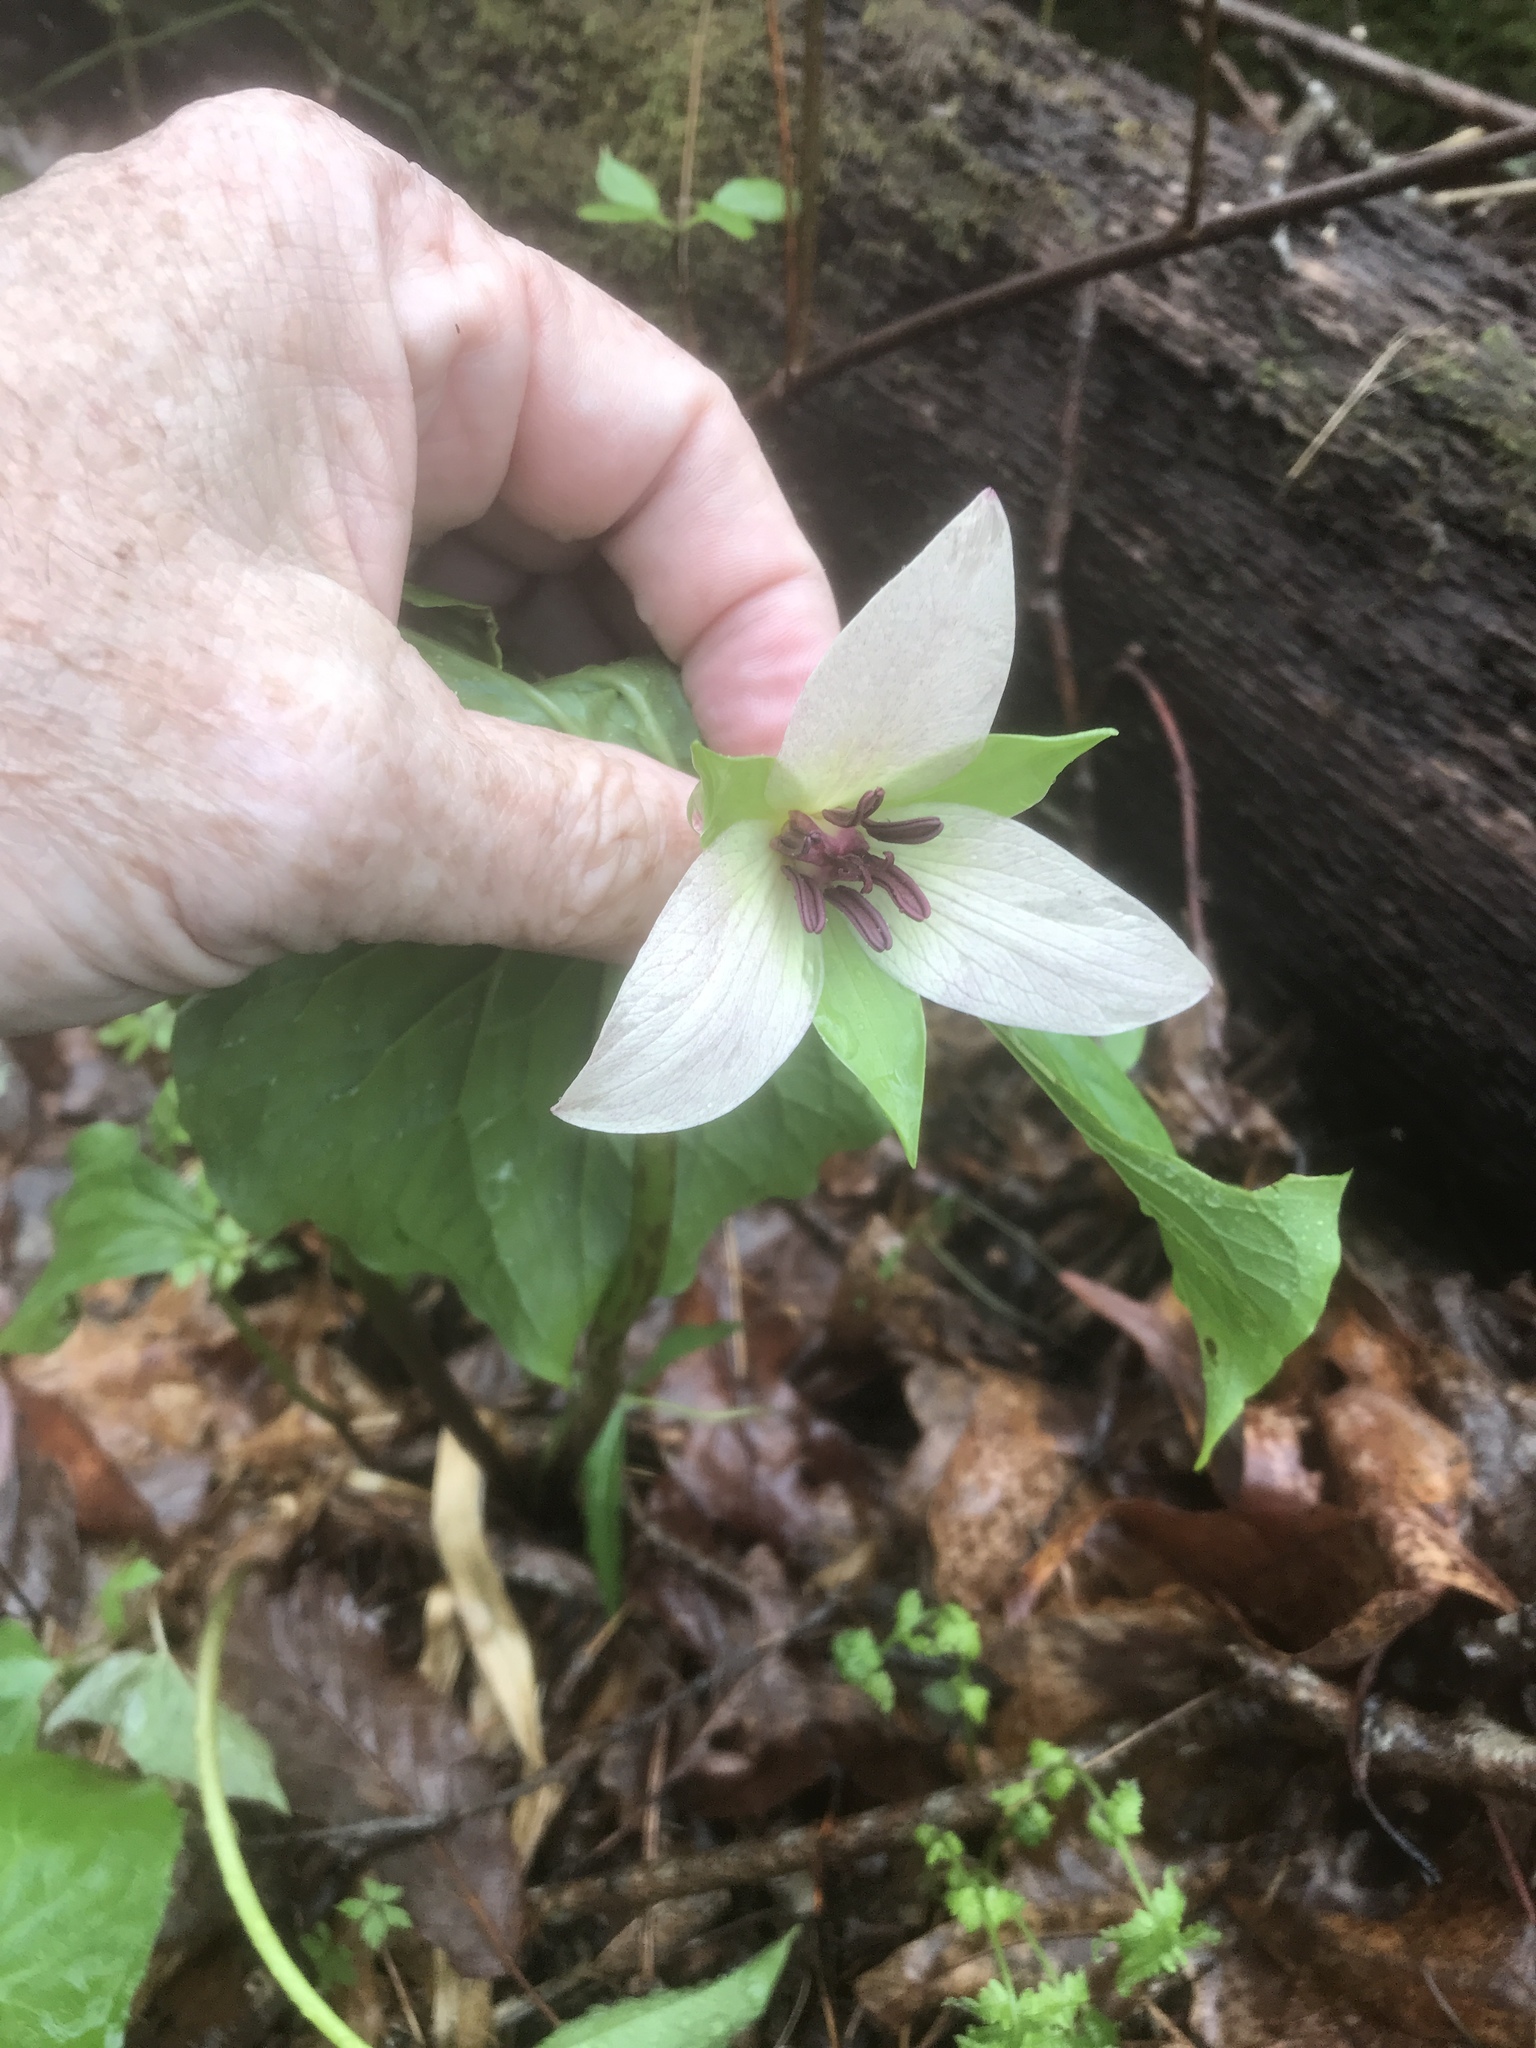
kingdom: Plantae
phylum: Tracheophyta
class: Liliopsida
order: Liliales
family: Melanthiaceae
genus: Trillium
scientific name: Trillium rugelii
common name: Ill-scented trillium
